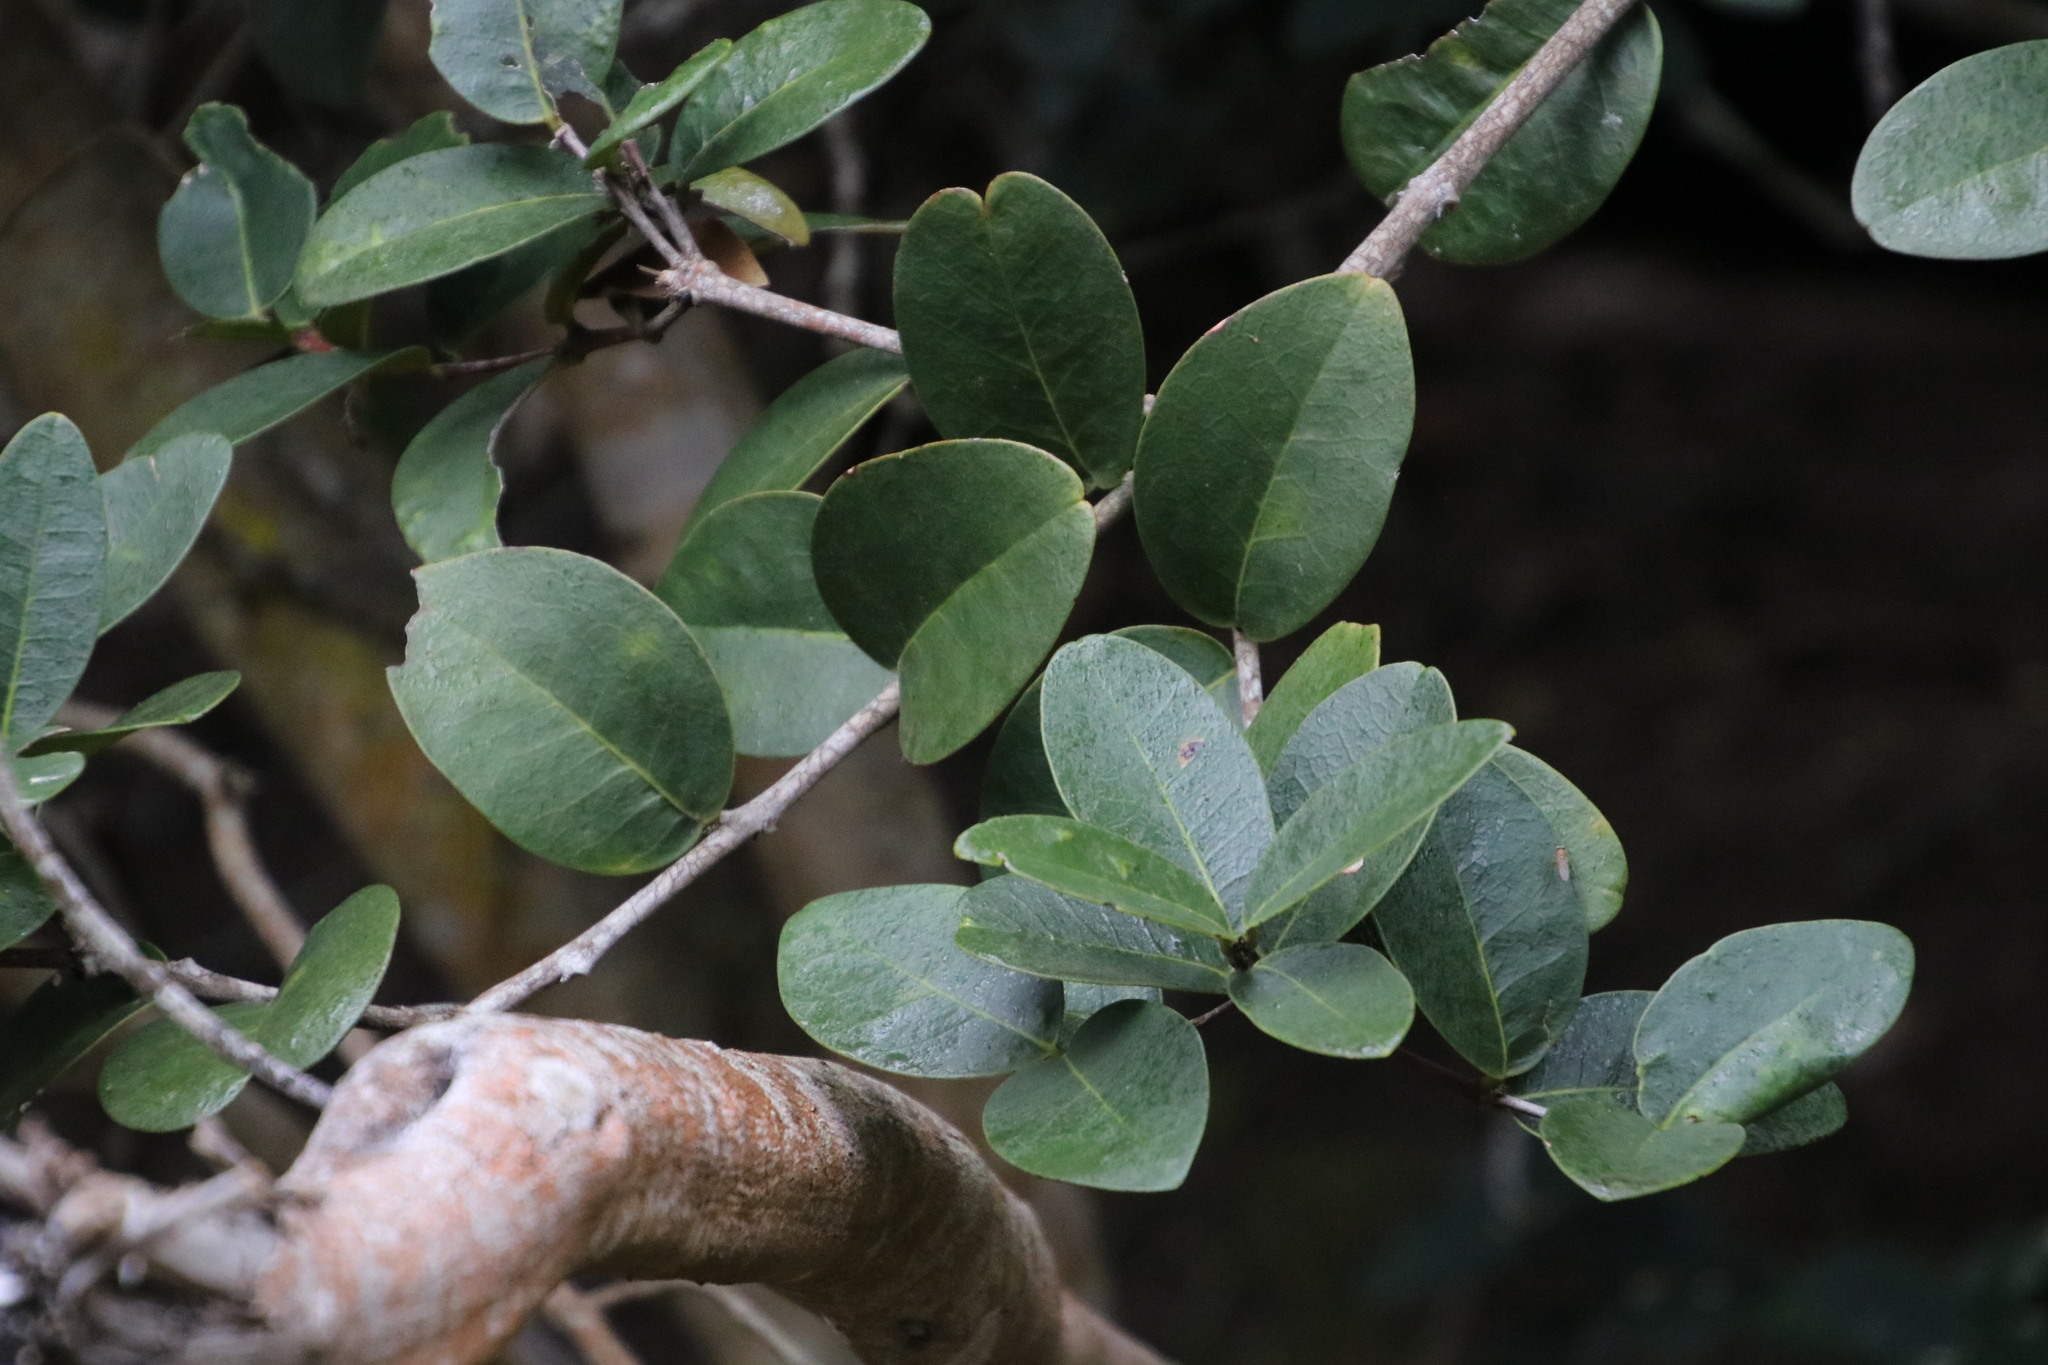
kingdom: Plantae
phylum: Tracheophyta
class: Magnoliopsida
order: Celastrales
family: Celastraceae
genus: Maurocenia
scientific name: Maurocenia frangula
